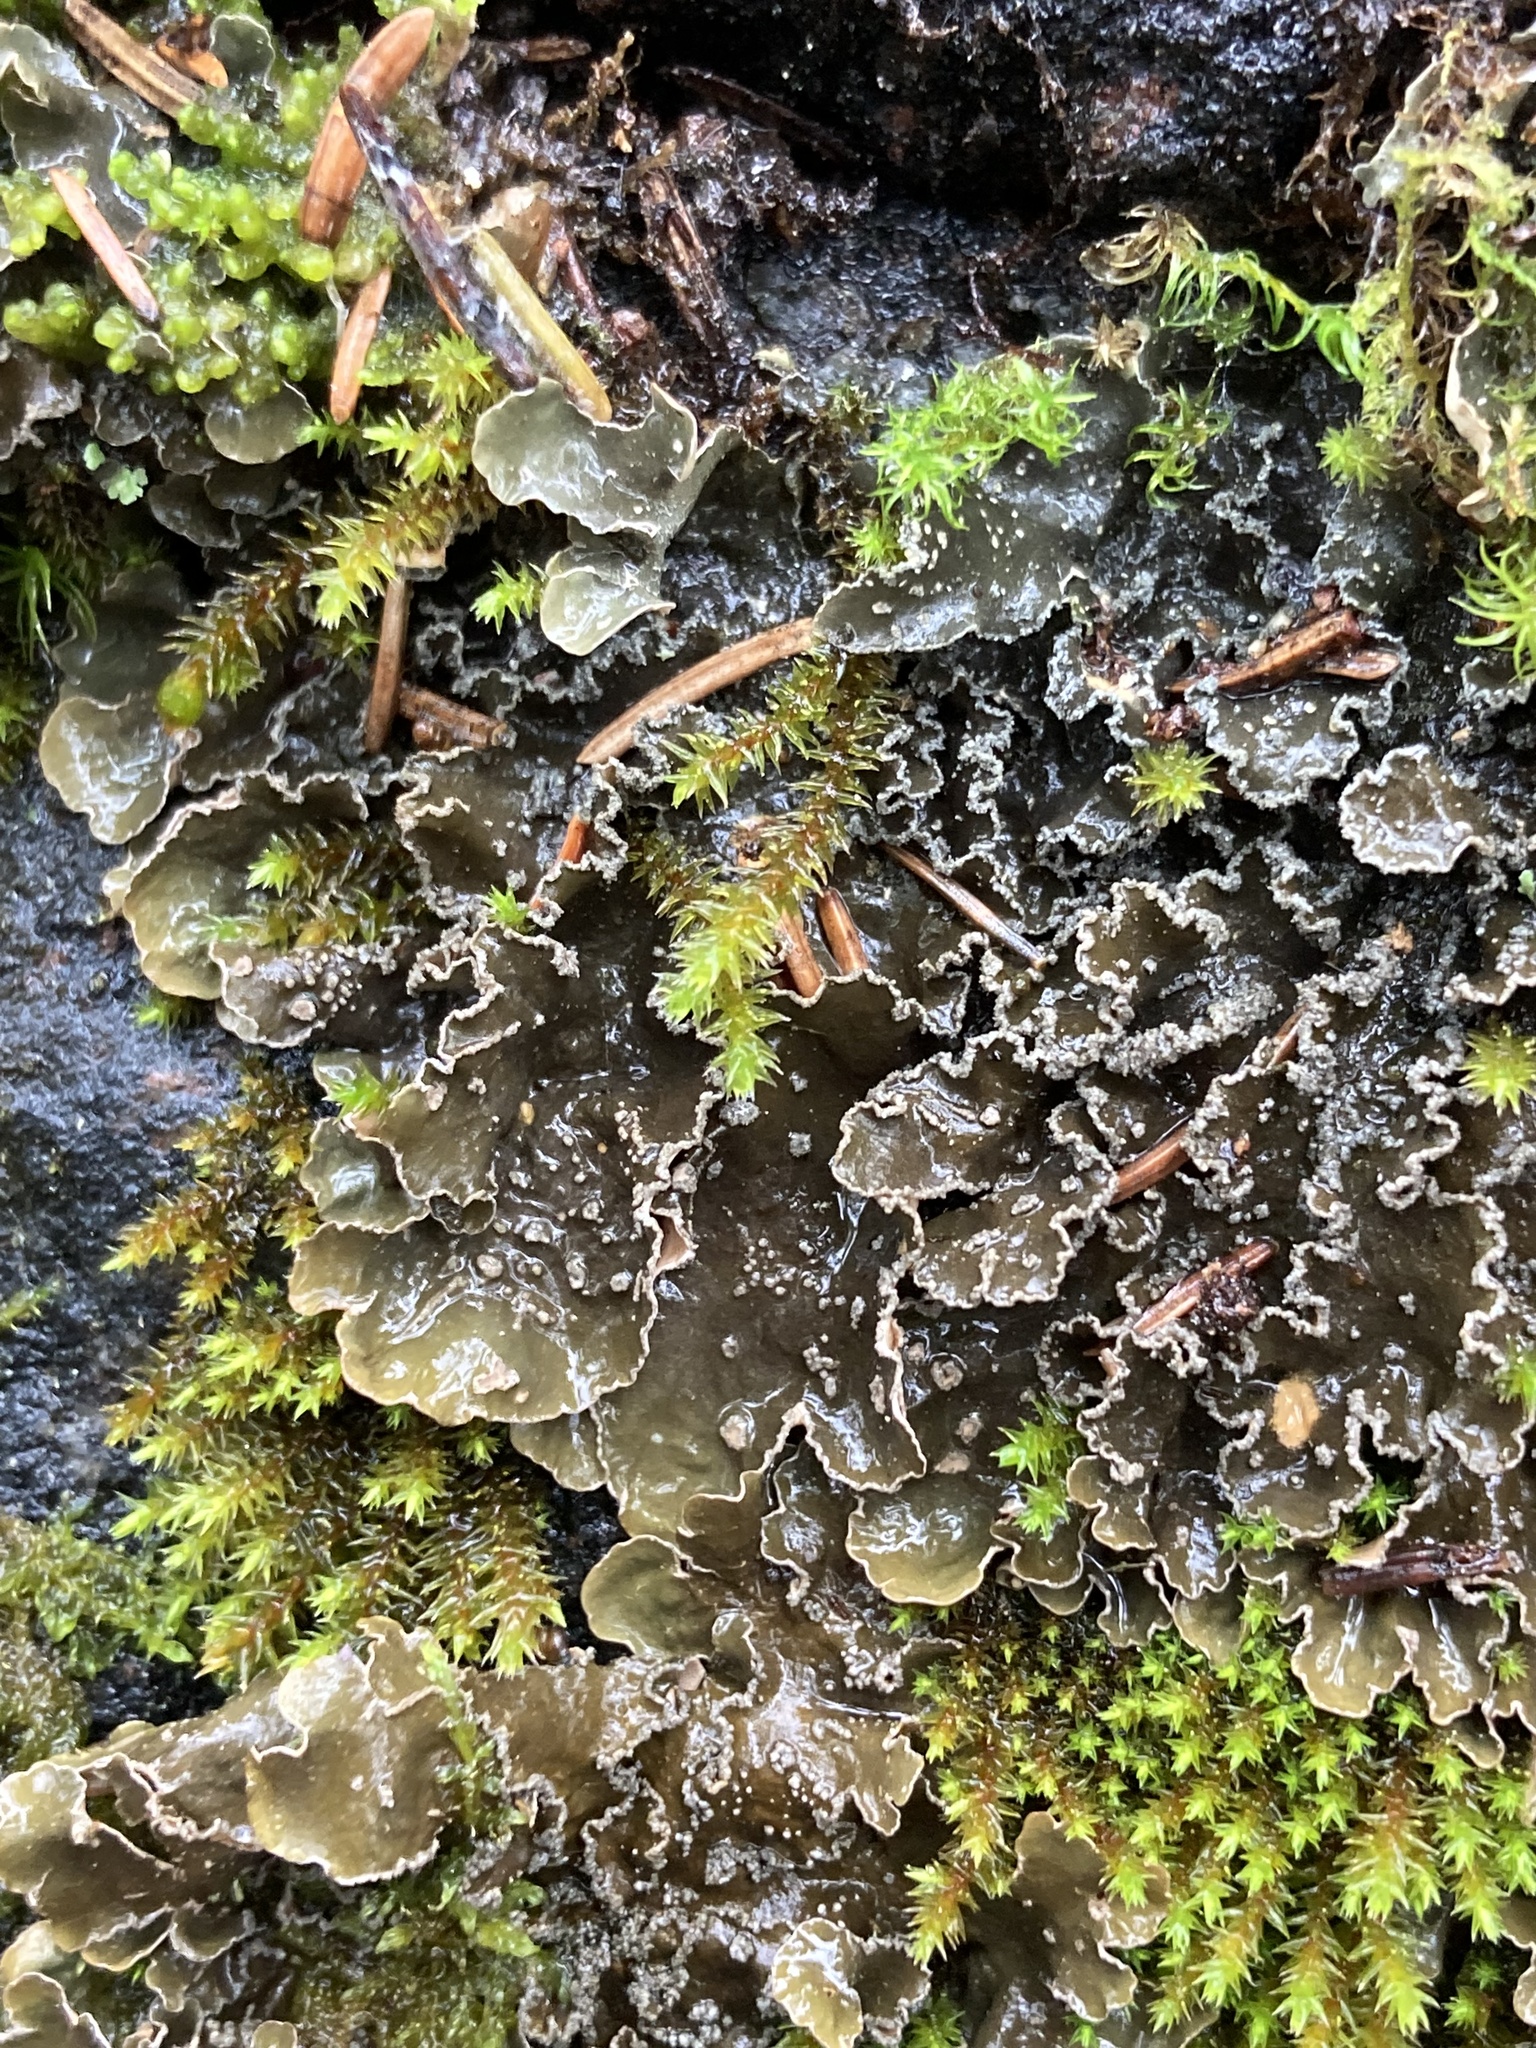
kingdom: Fungi
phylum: Ascomycota
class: Lecanoromycetes
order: Peltigerales
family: Nephromataceae
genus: Nephroma
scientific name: Nephroma parile
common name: Powdery kidney lichen
